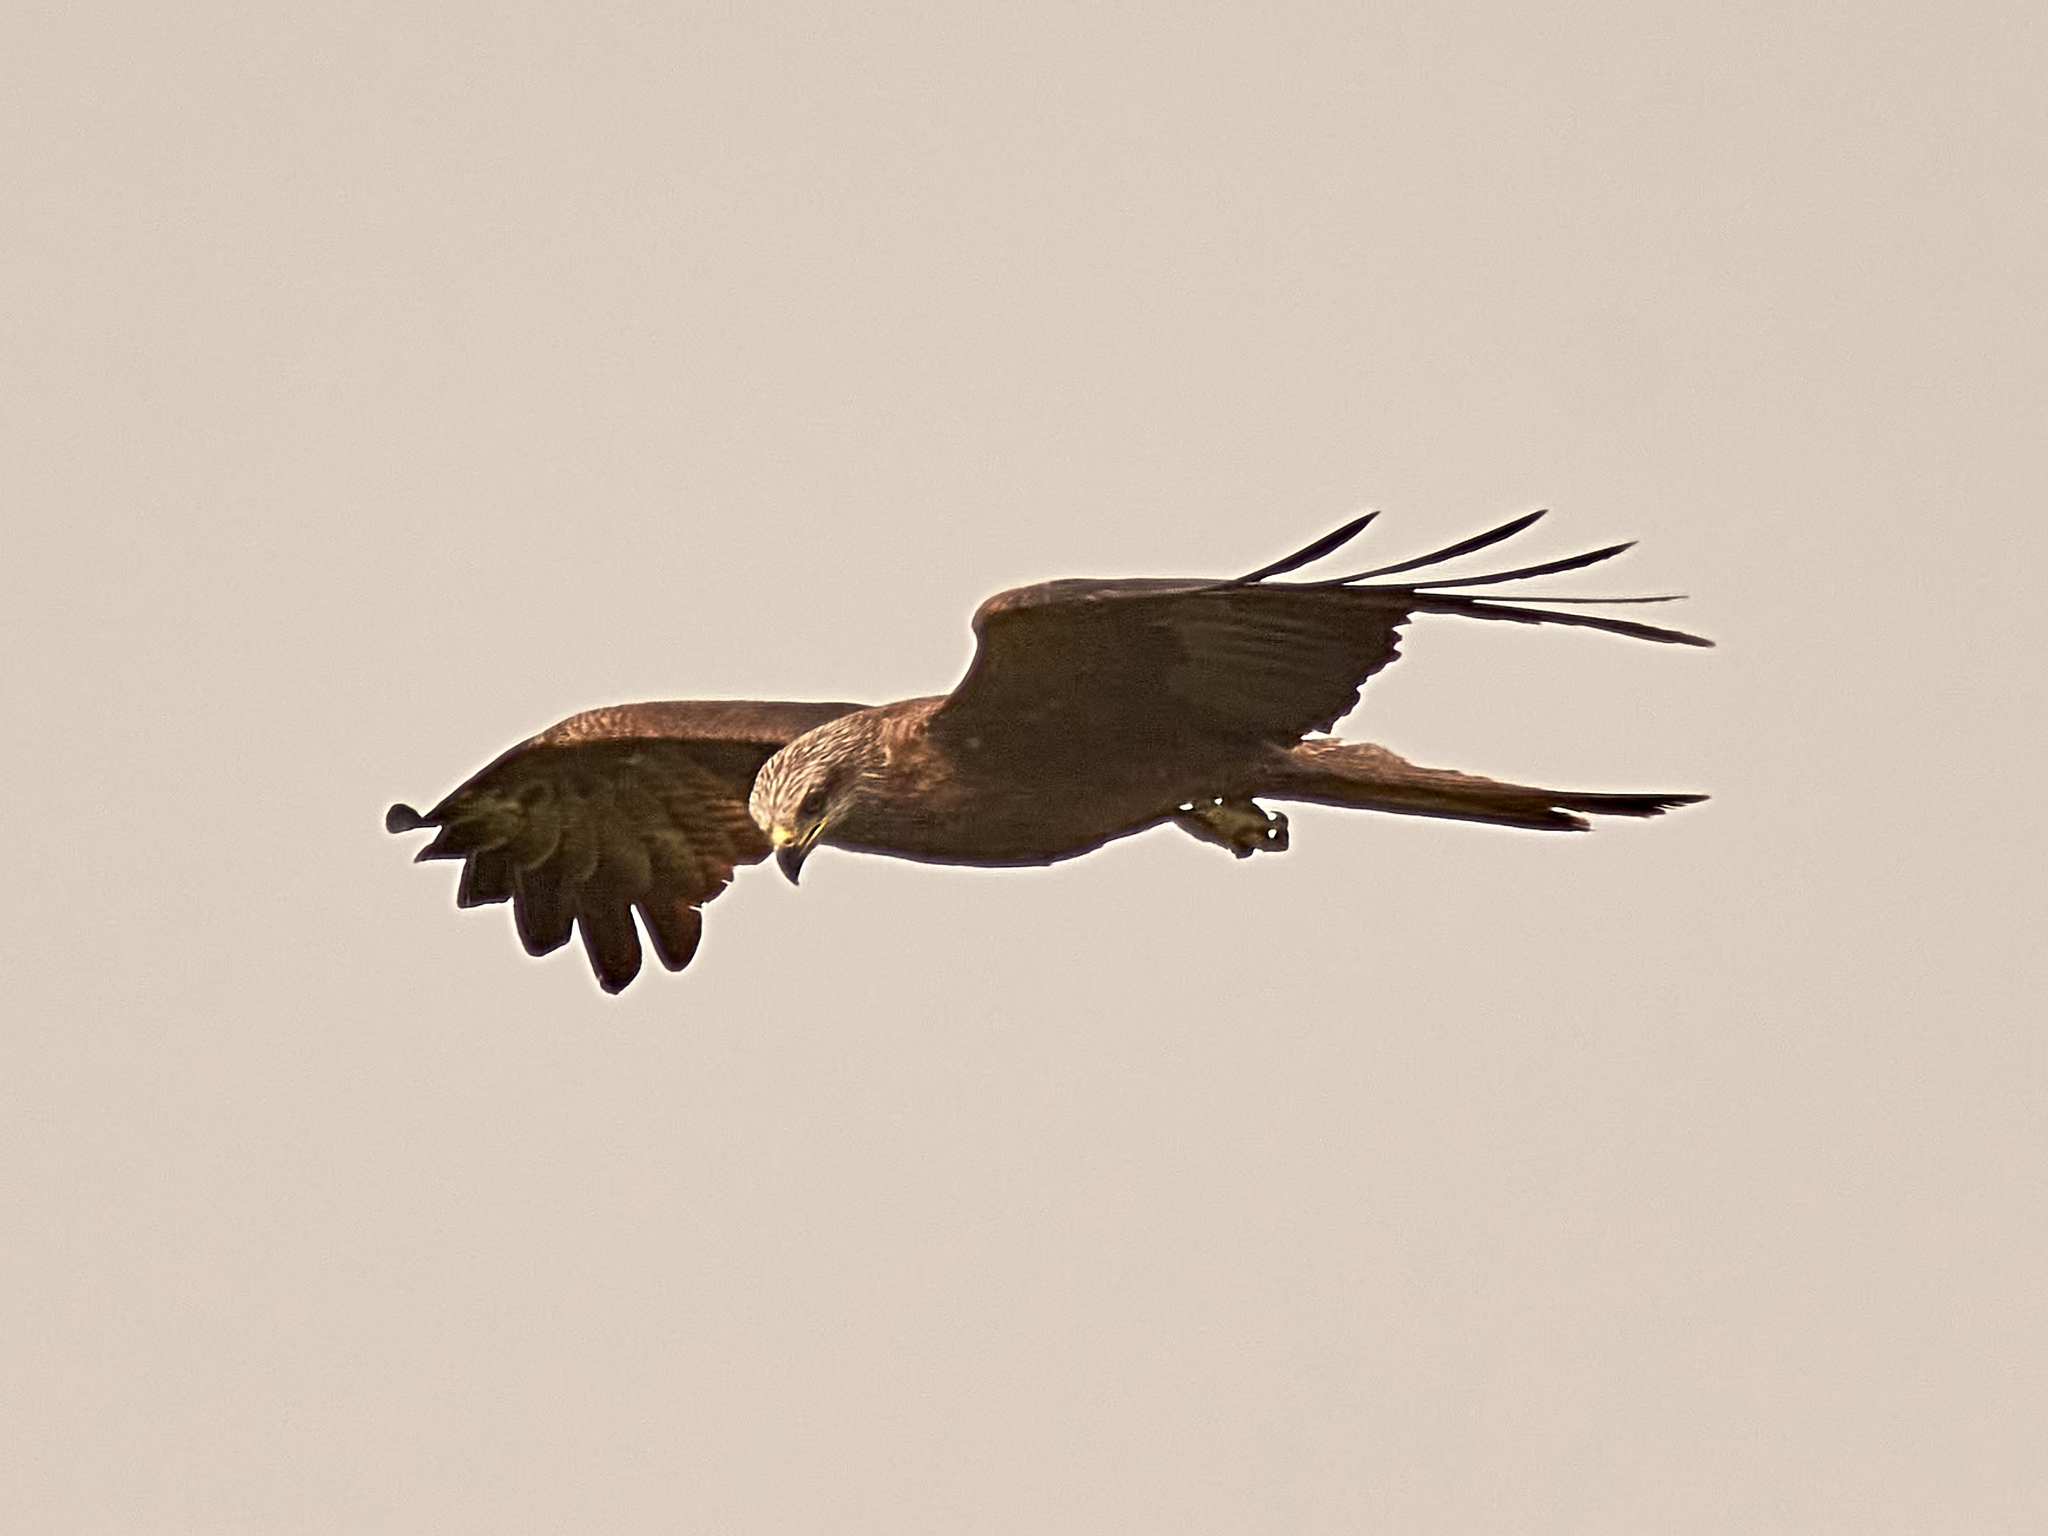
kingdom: Animalia
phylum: Chordata
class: Aves
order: Accipitriformes
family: Accipitridae
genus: Milvus
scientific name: Milvus migrans
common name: Black kite
